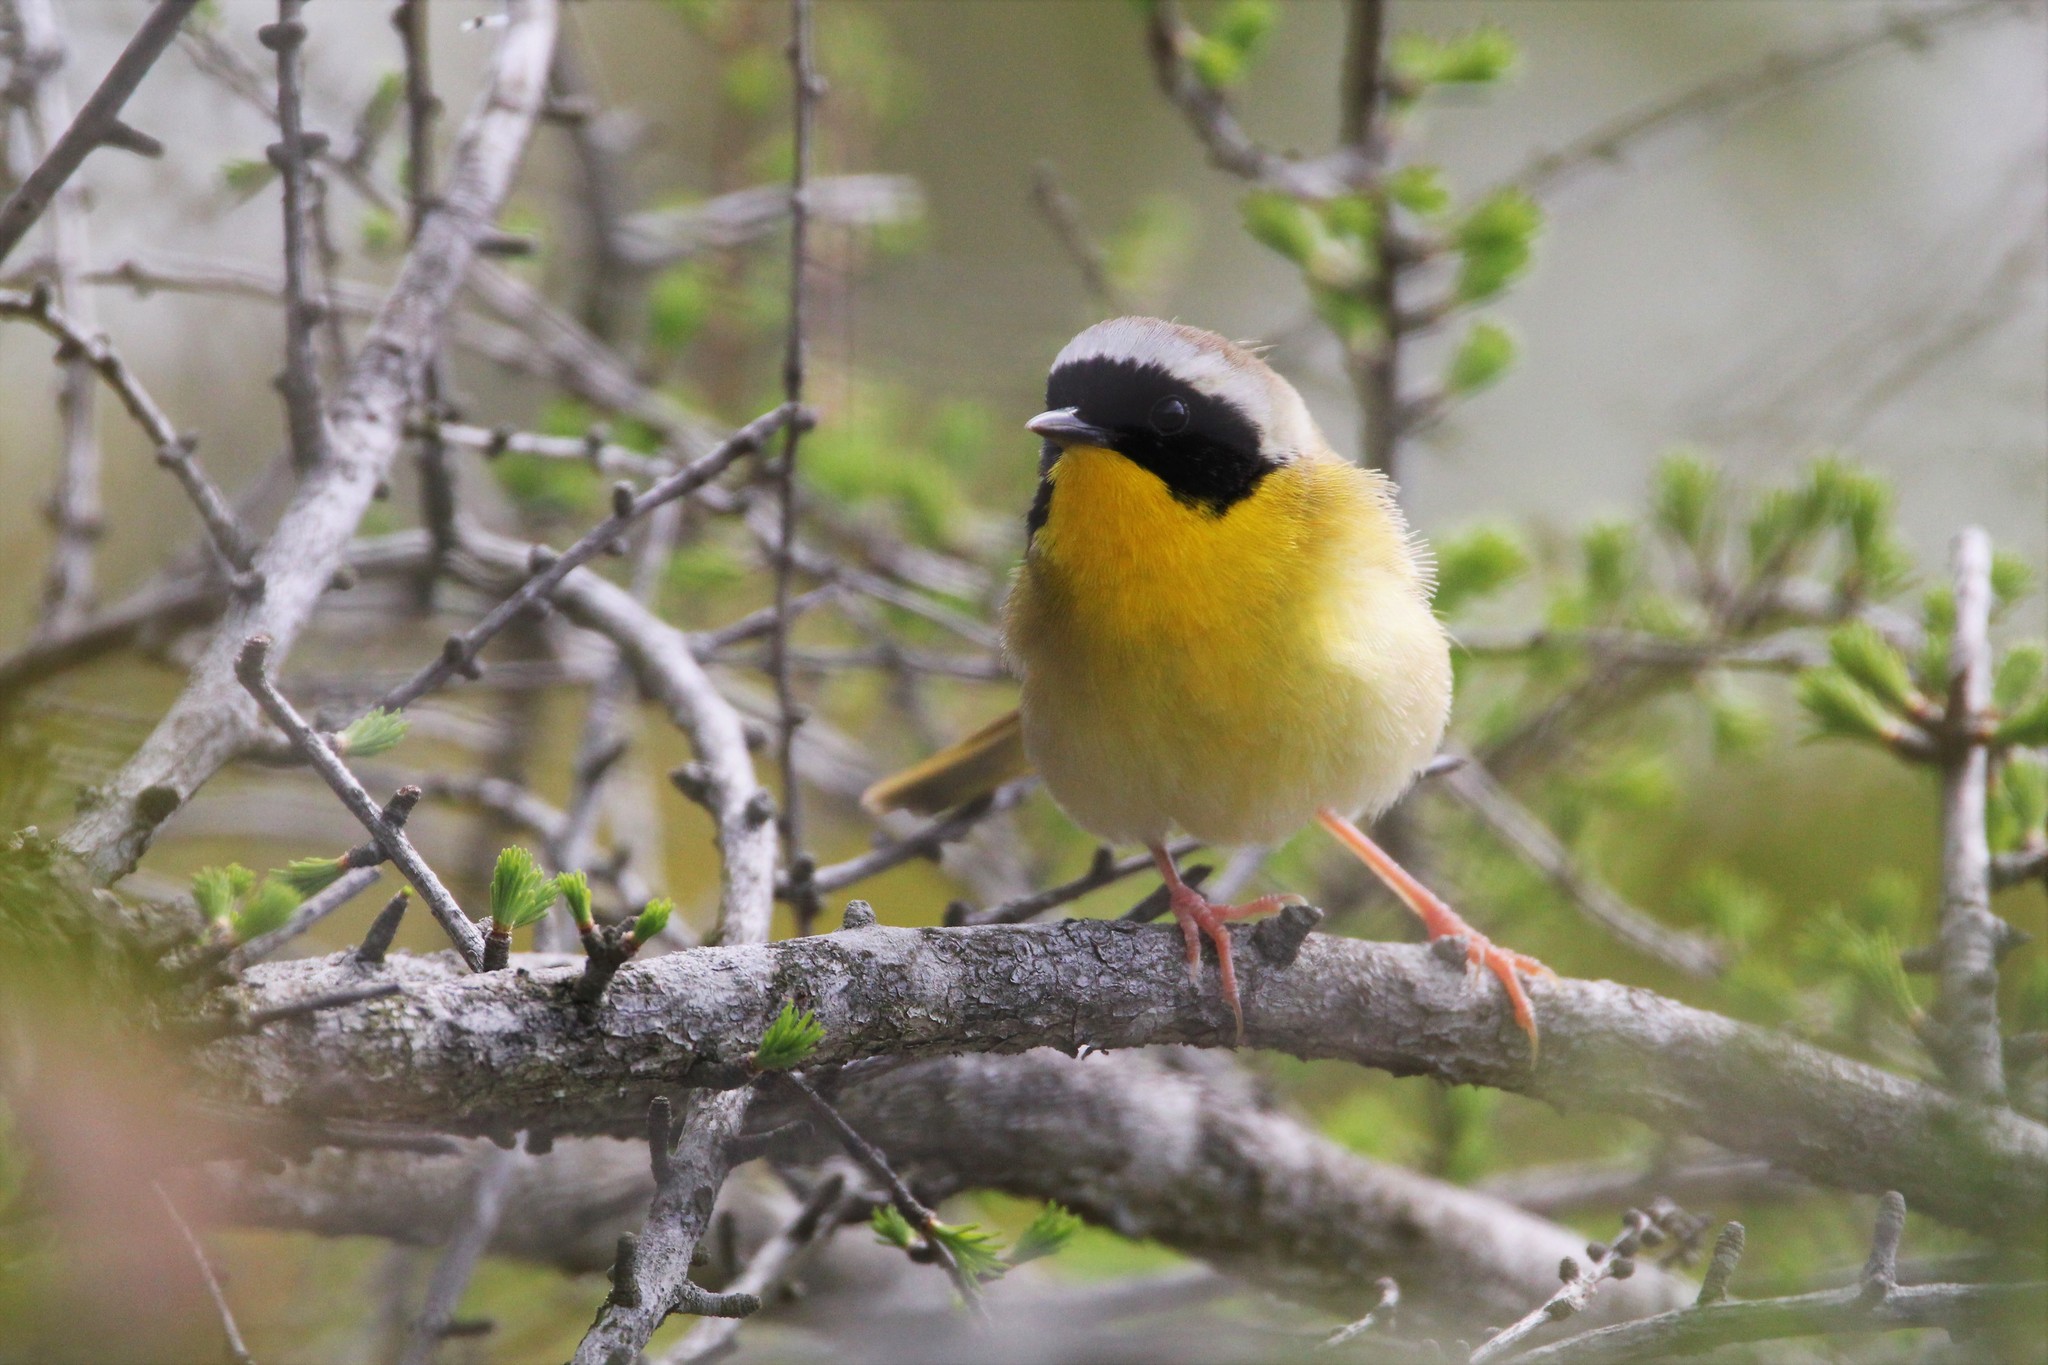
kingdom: Animalia
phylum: Chordata
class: Aves
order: Passeriformes
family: Parulidae
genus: Geothlypis
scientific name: Geothlypis trichas
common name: Common yellowthroat
